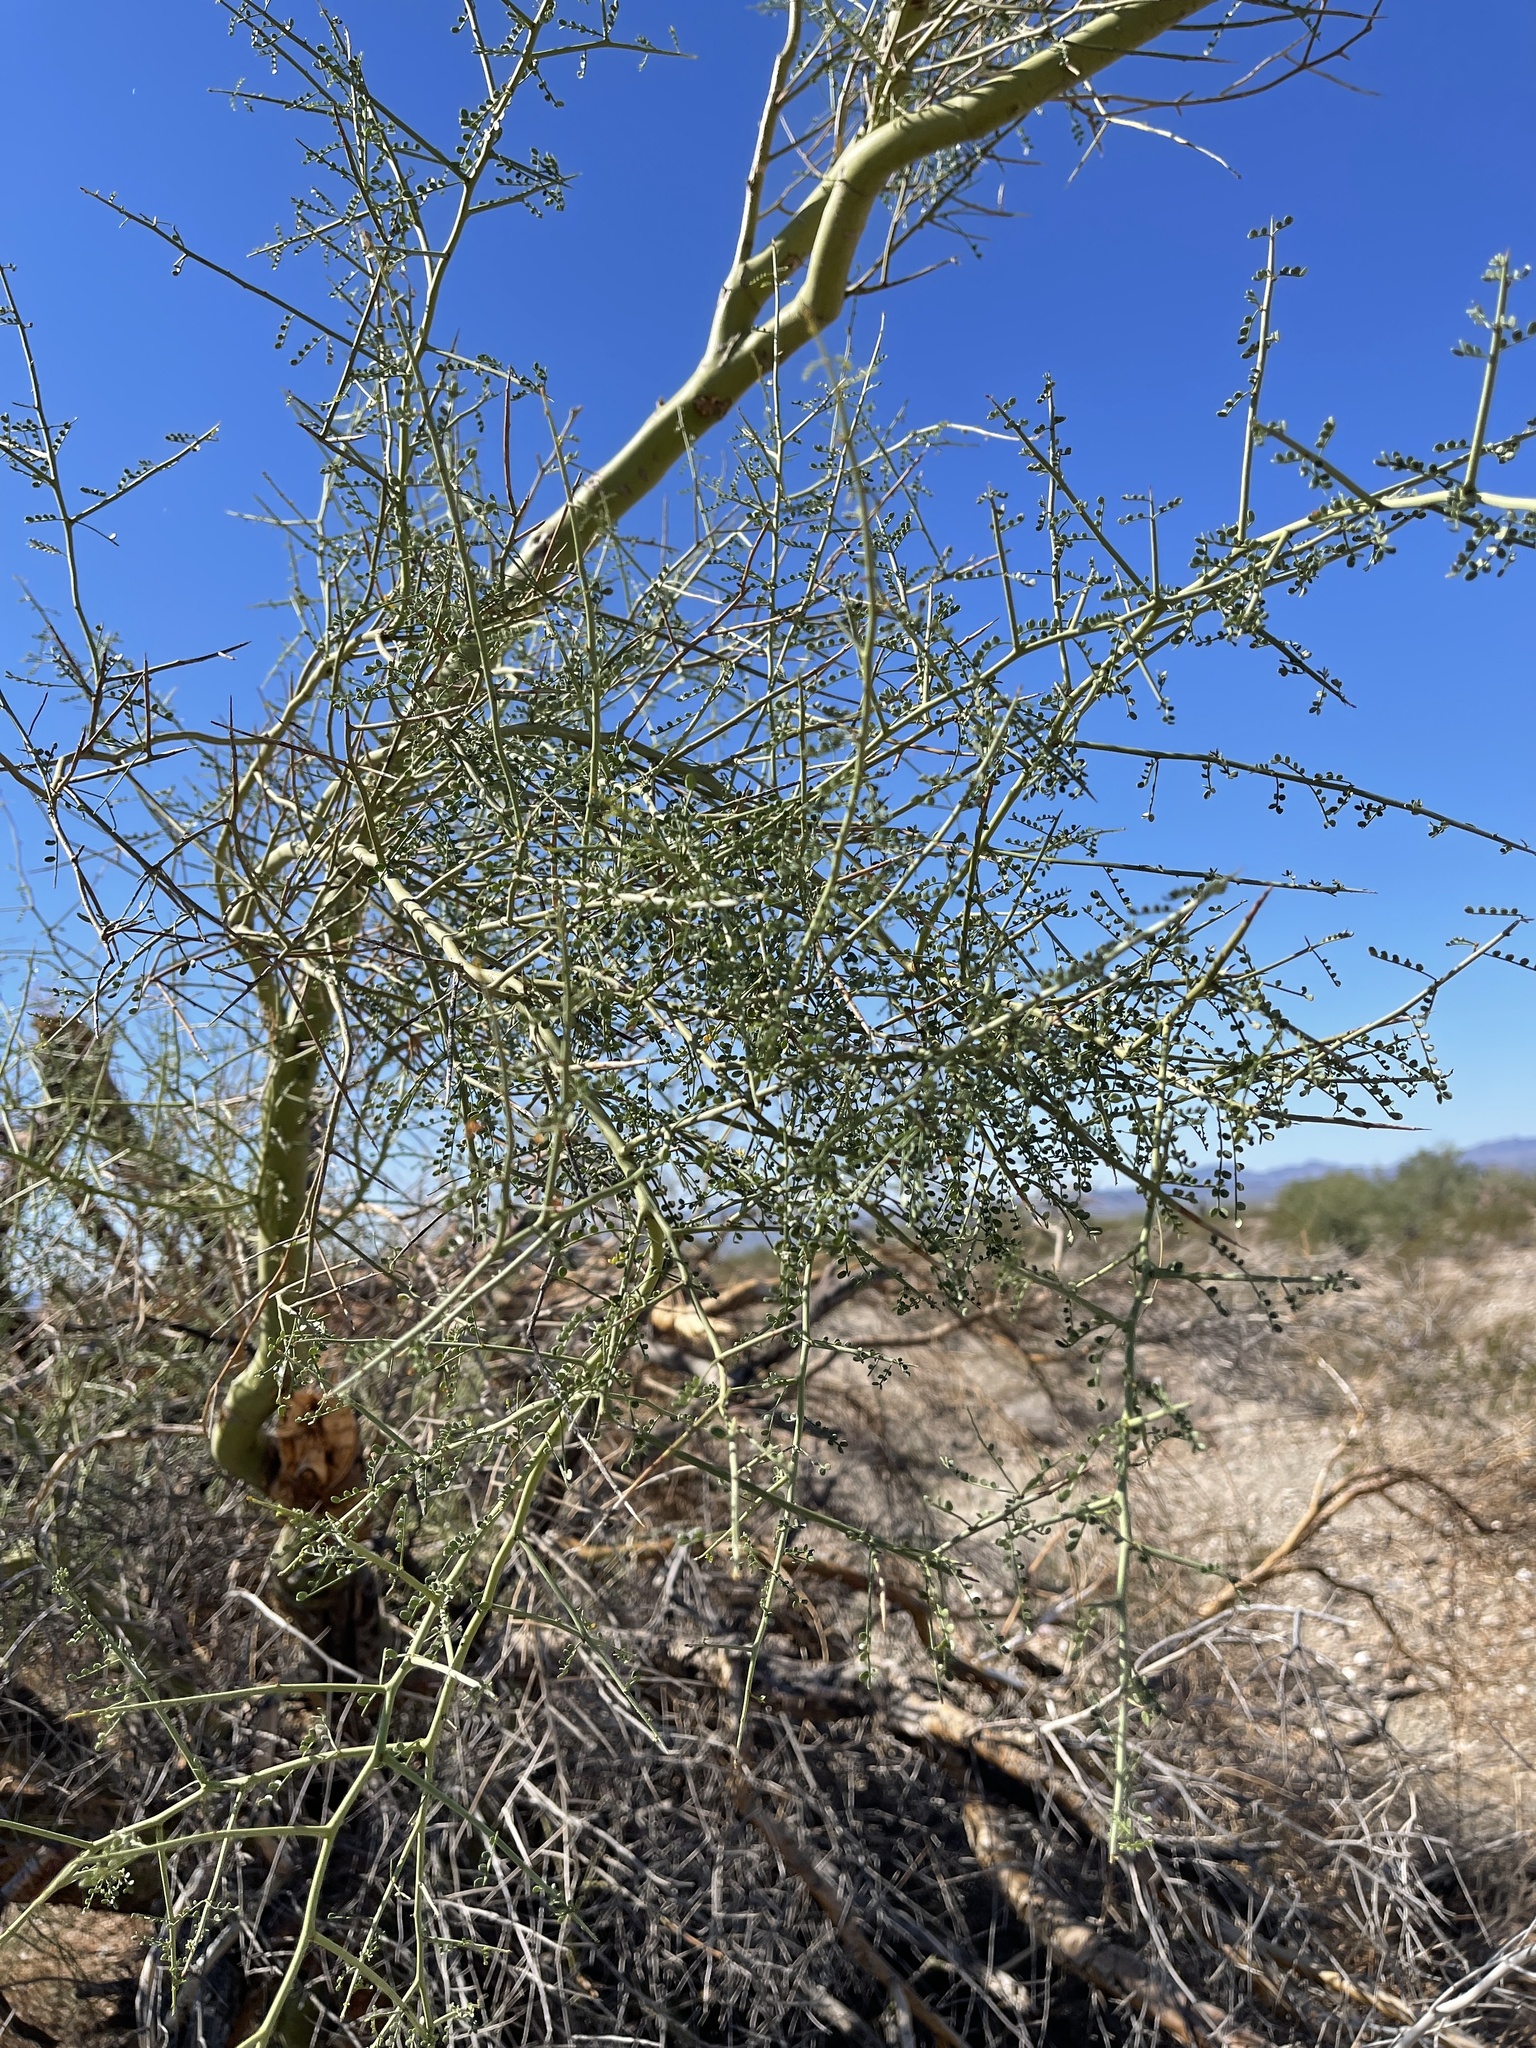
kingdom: Plantae
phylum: Tracheophyta
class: Magnoliopsida
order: Fabales
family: Fabaceae
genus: Parkinsonia
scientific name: Parkinsonia microphylla
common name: Yellow paloverde
